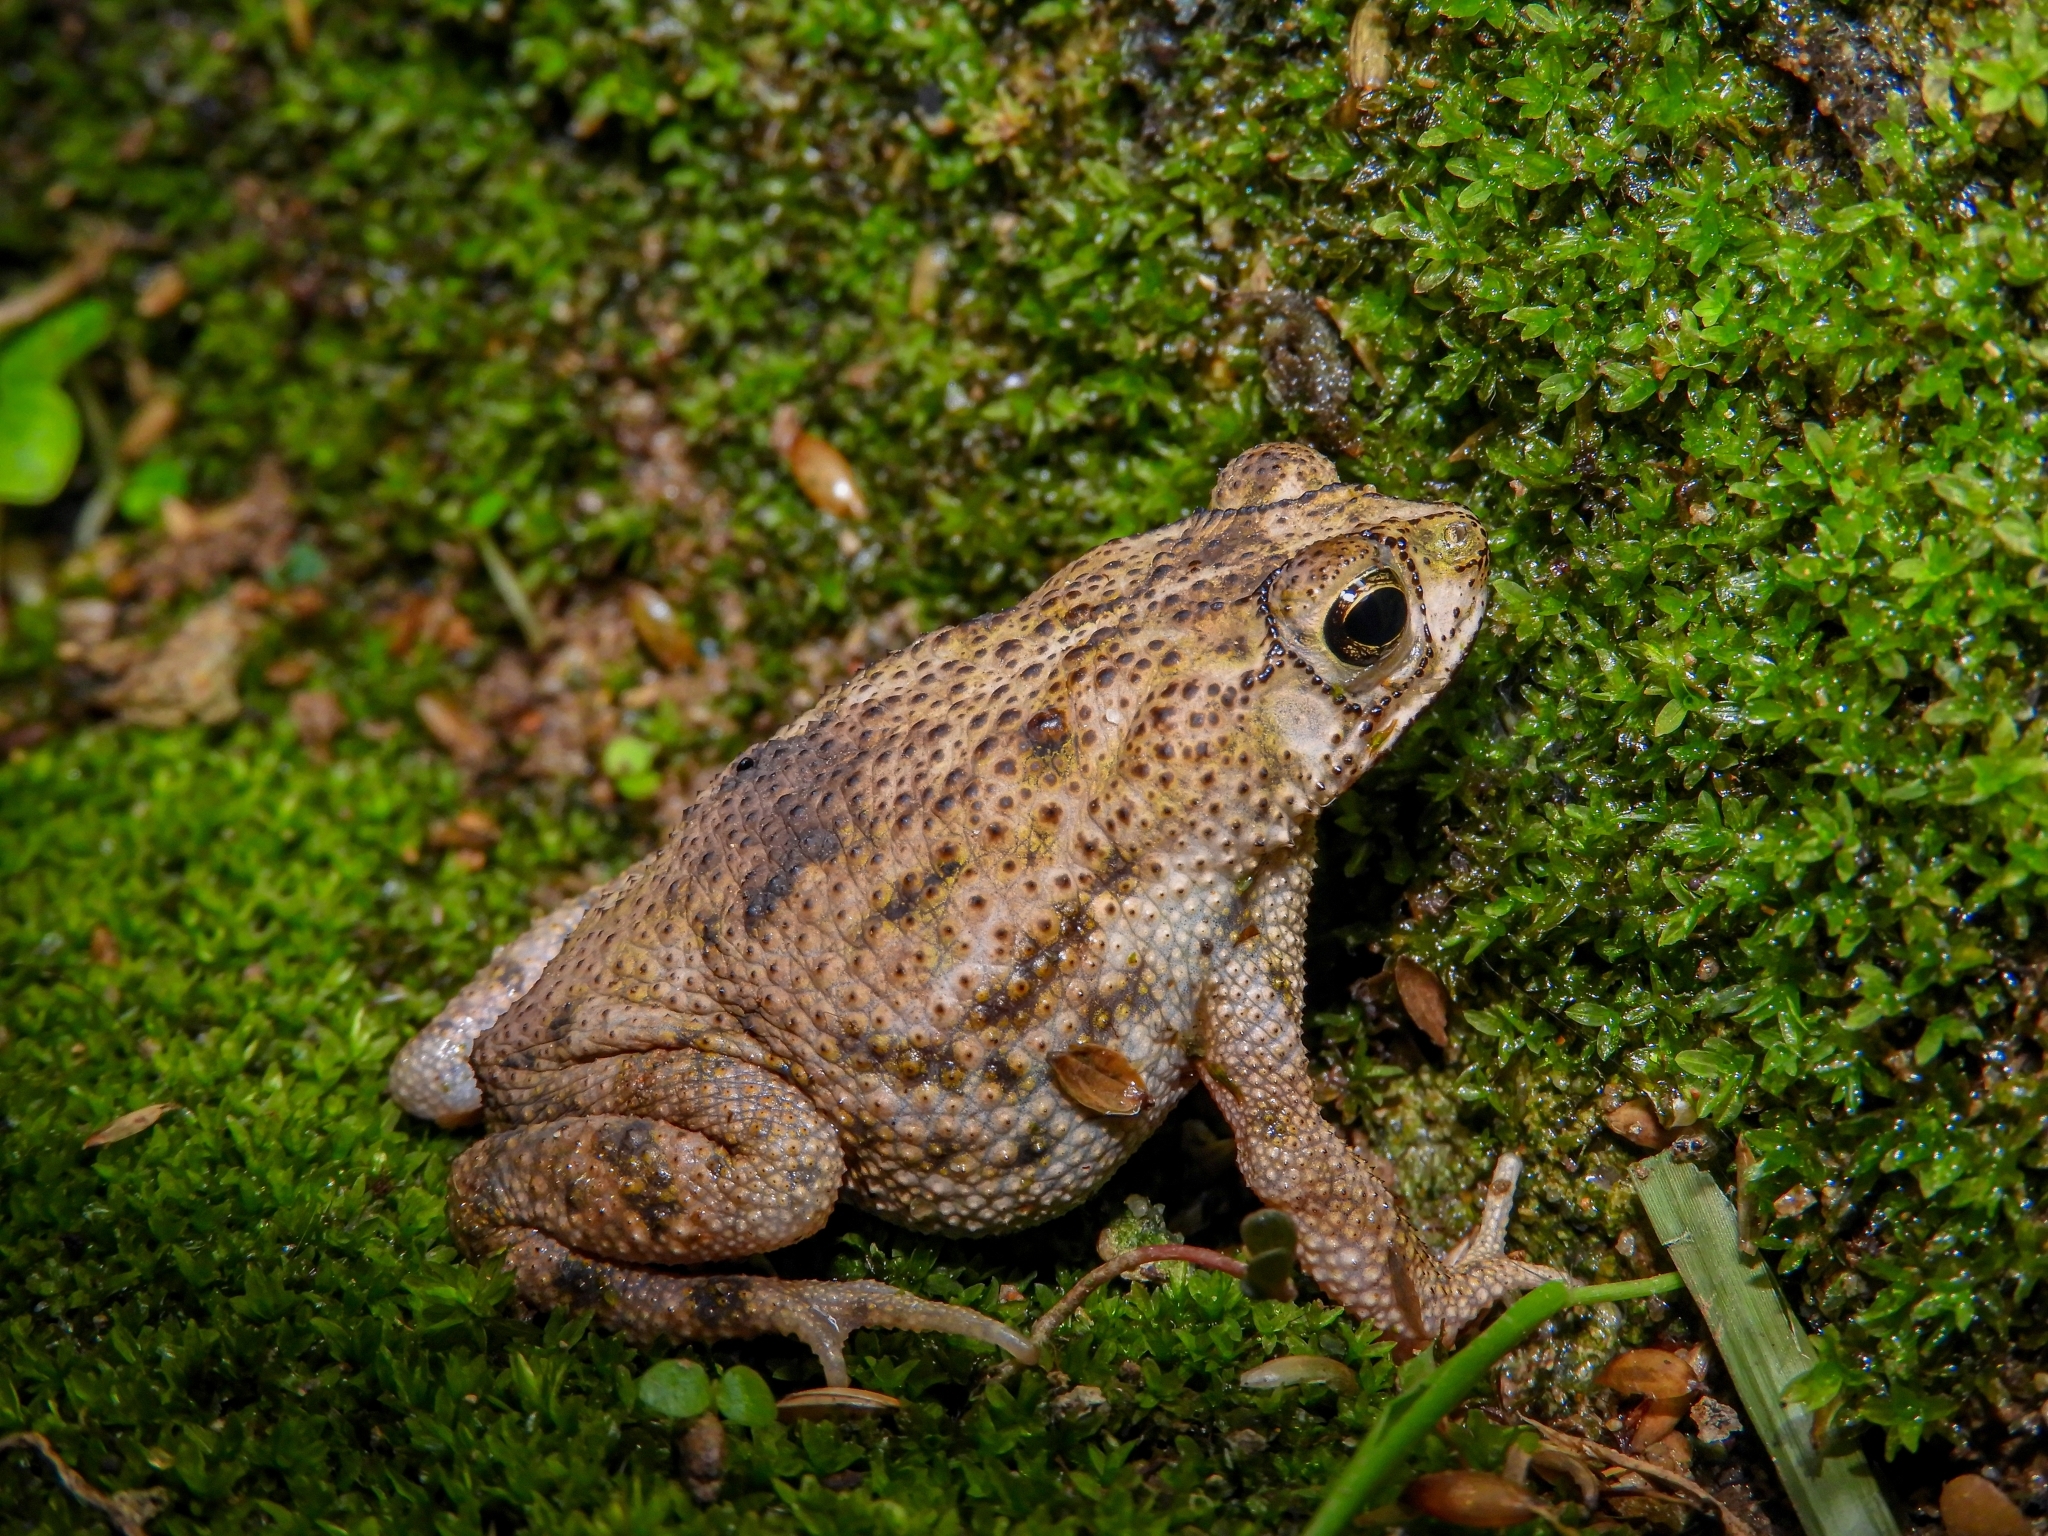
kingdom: Animalia
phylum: Chordata
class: Amphibia
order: Anura
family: Bufonidae
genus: Rhinella
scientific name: Rhinella humboldti
